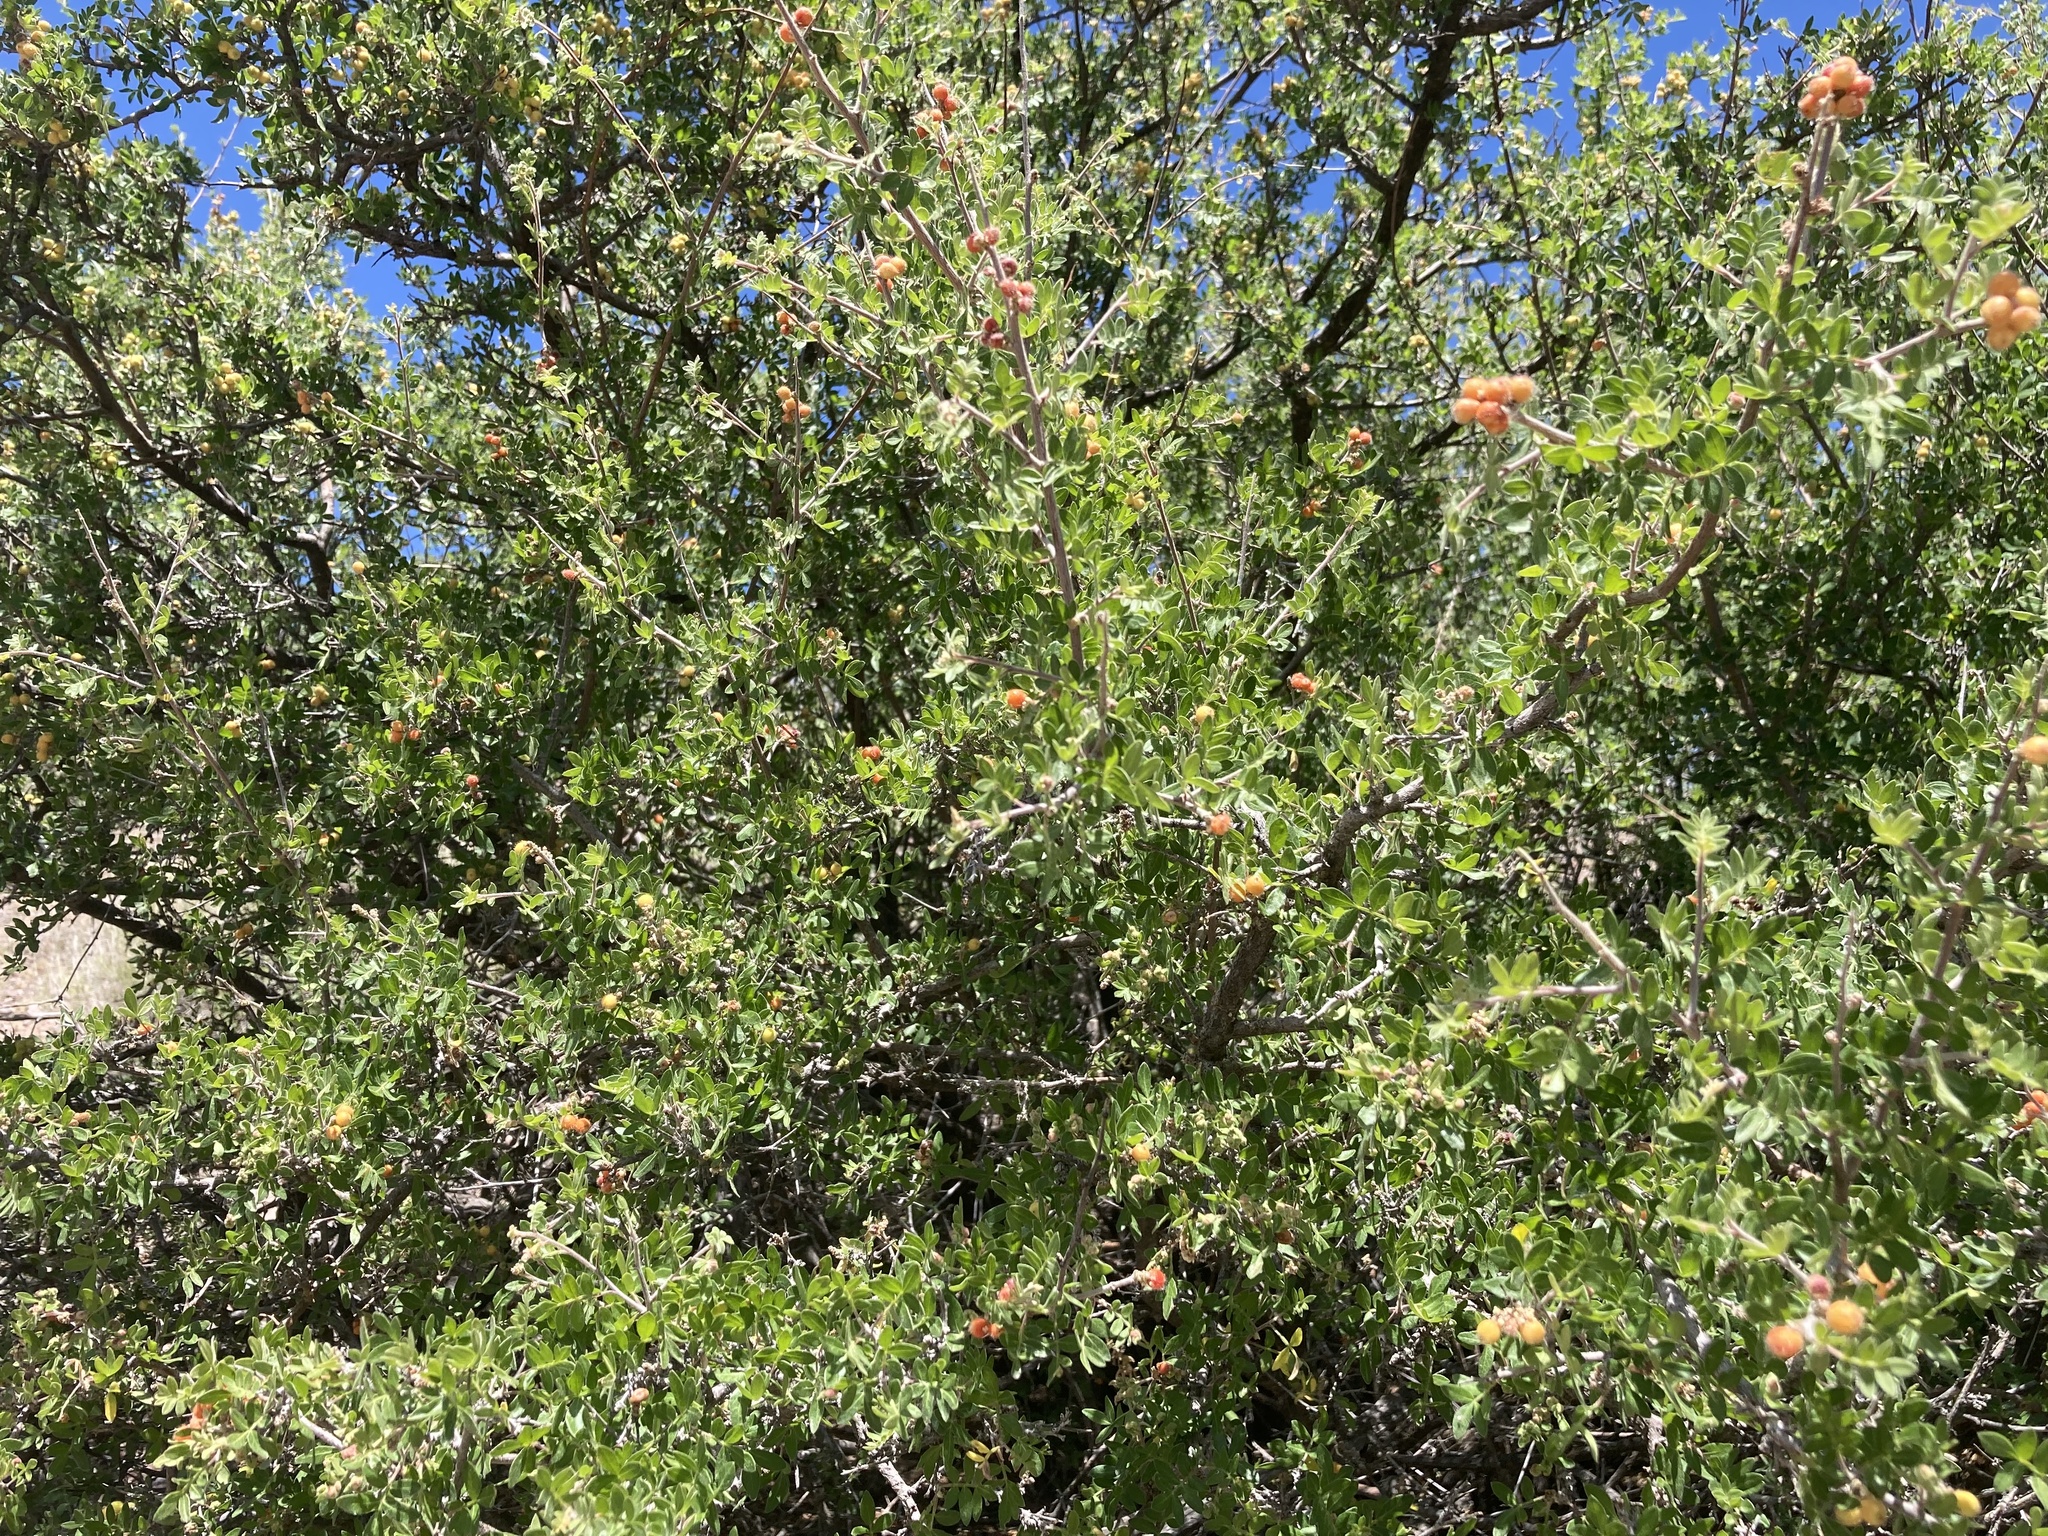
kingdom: Plantae
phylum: Tracheophyta
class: Magnoliopsida
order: Sapindales
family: Anacardiaceae
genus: Rhus
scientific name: Rhus microphylla
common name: Desert sumac
